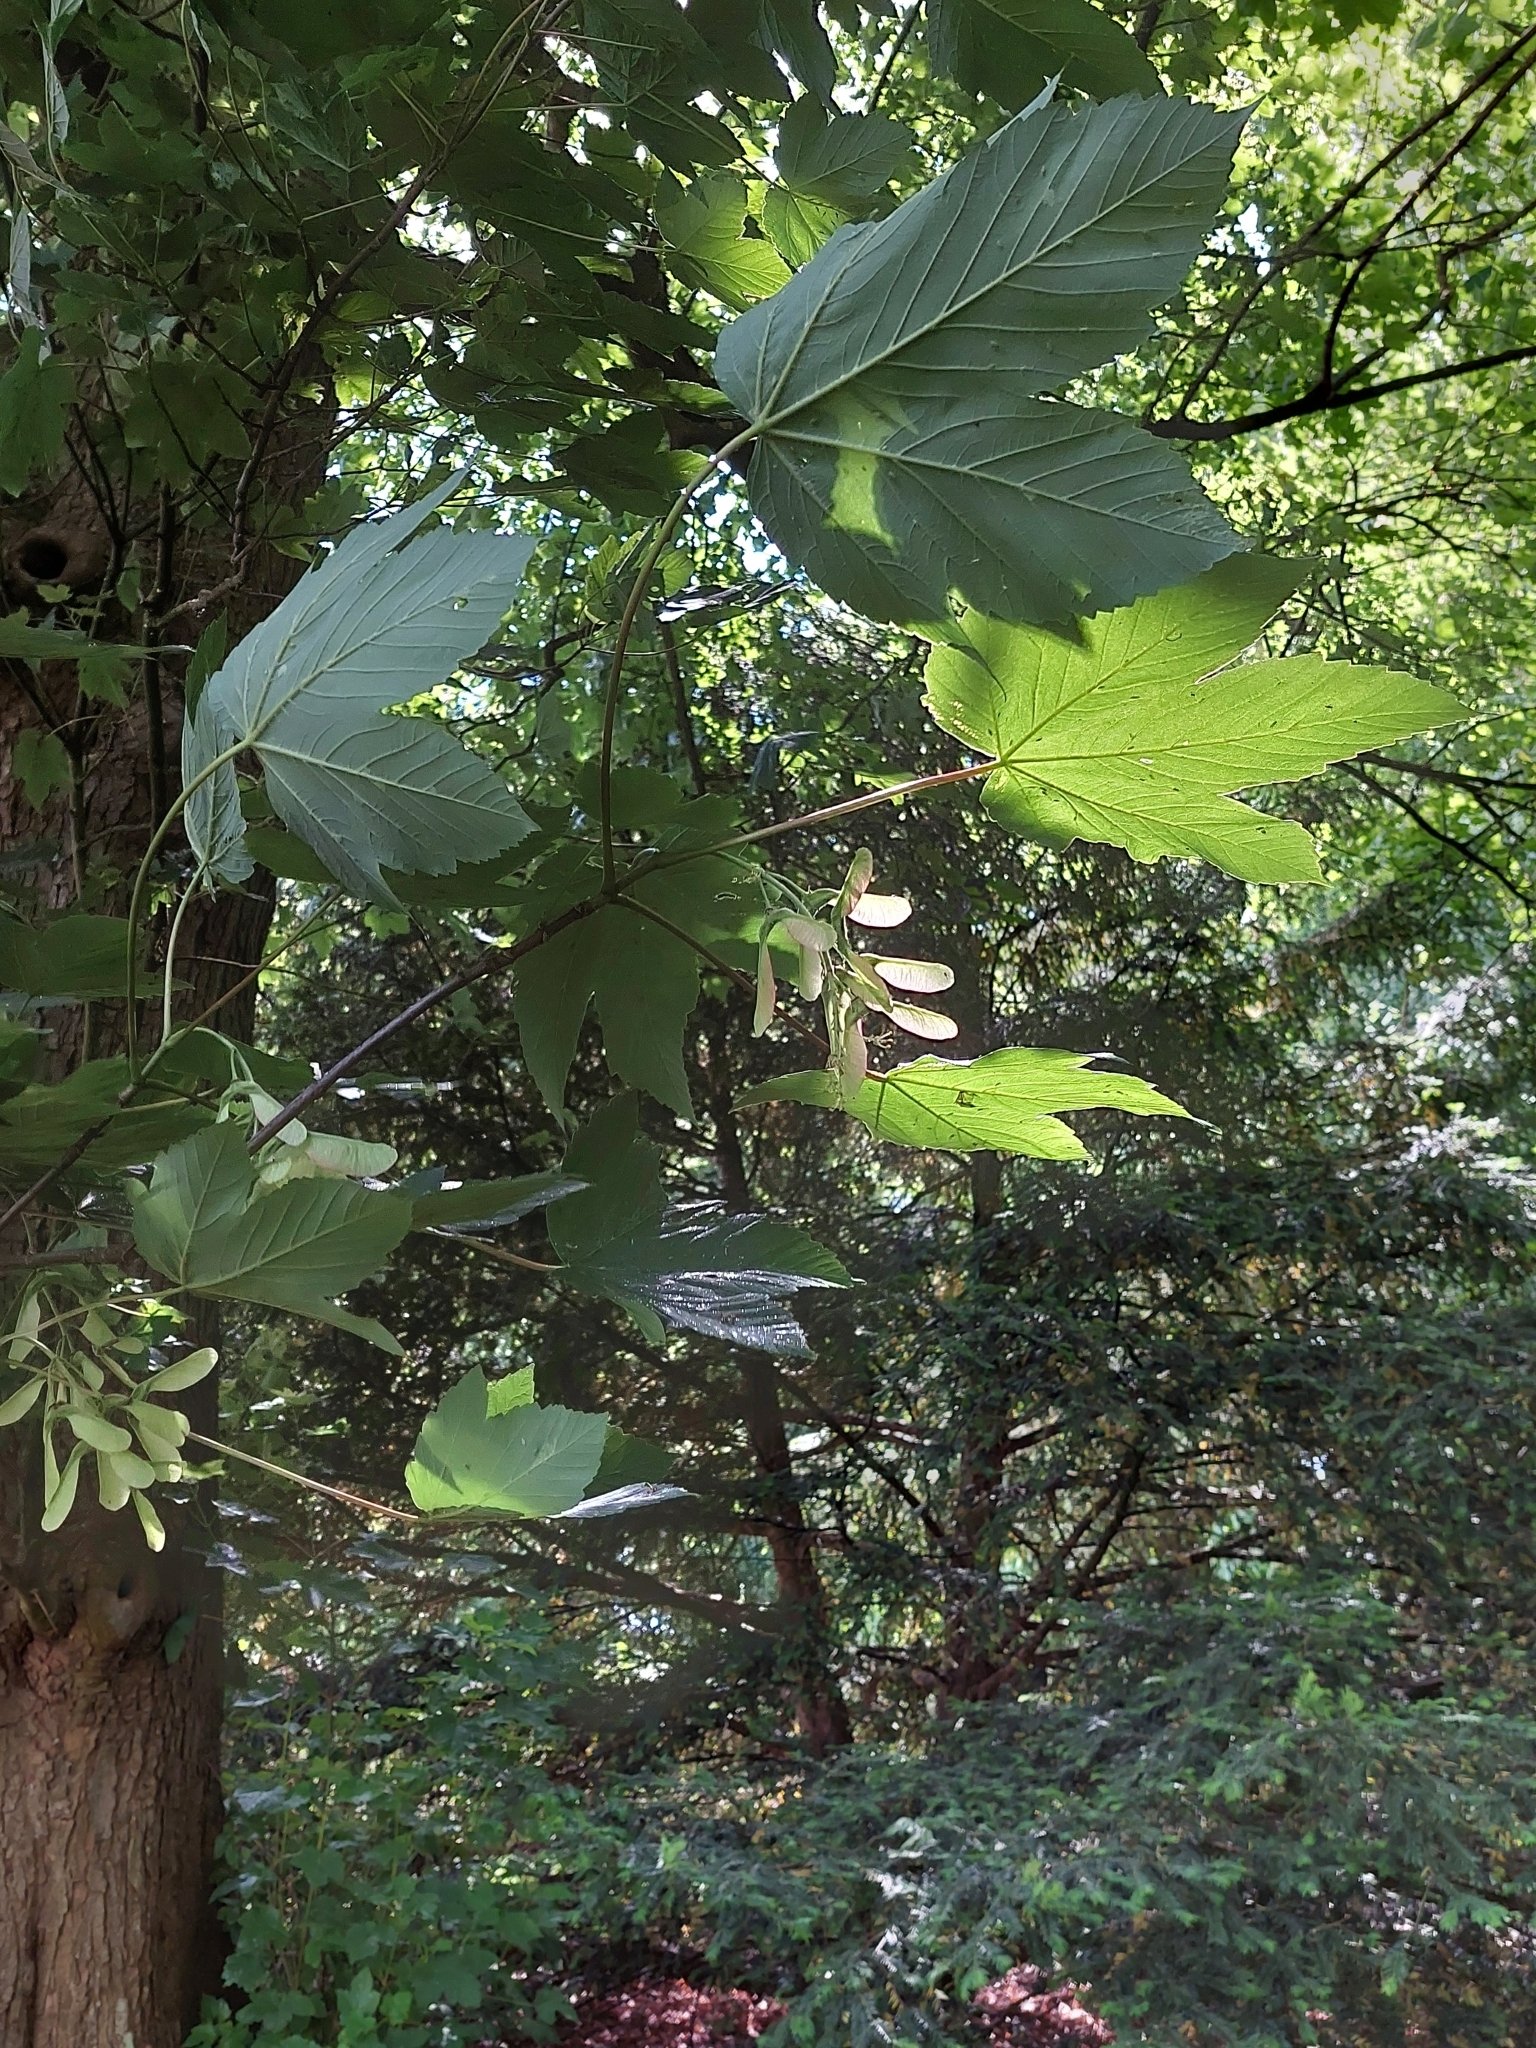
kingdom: Plantae
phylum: Tracheophyta
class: Magnoliopsida
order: Sapindales
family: Sapindaceae
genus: Acer
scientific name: Acer pseudoplatanus
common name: Sycamore
